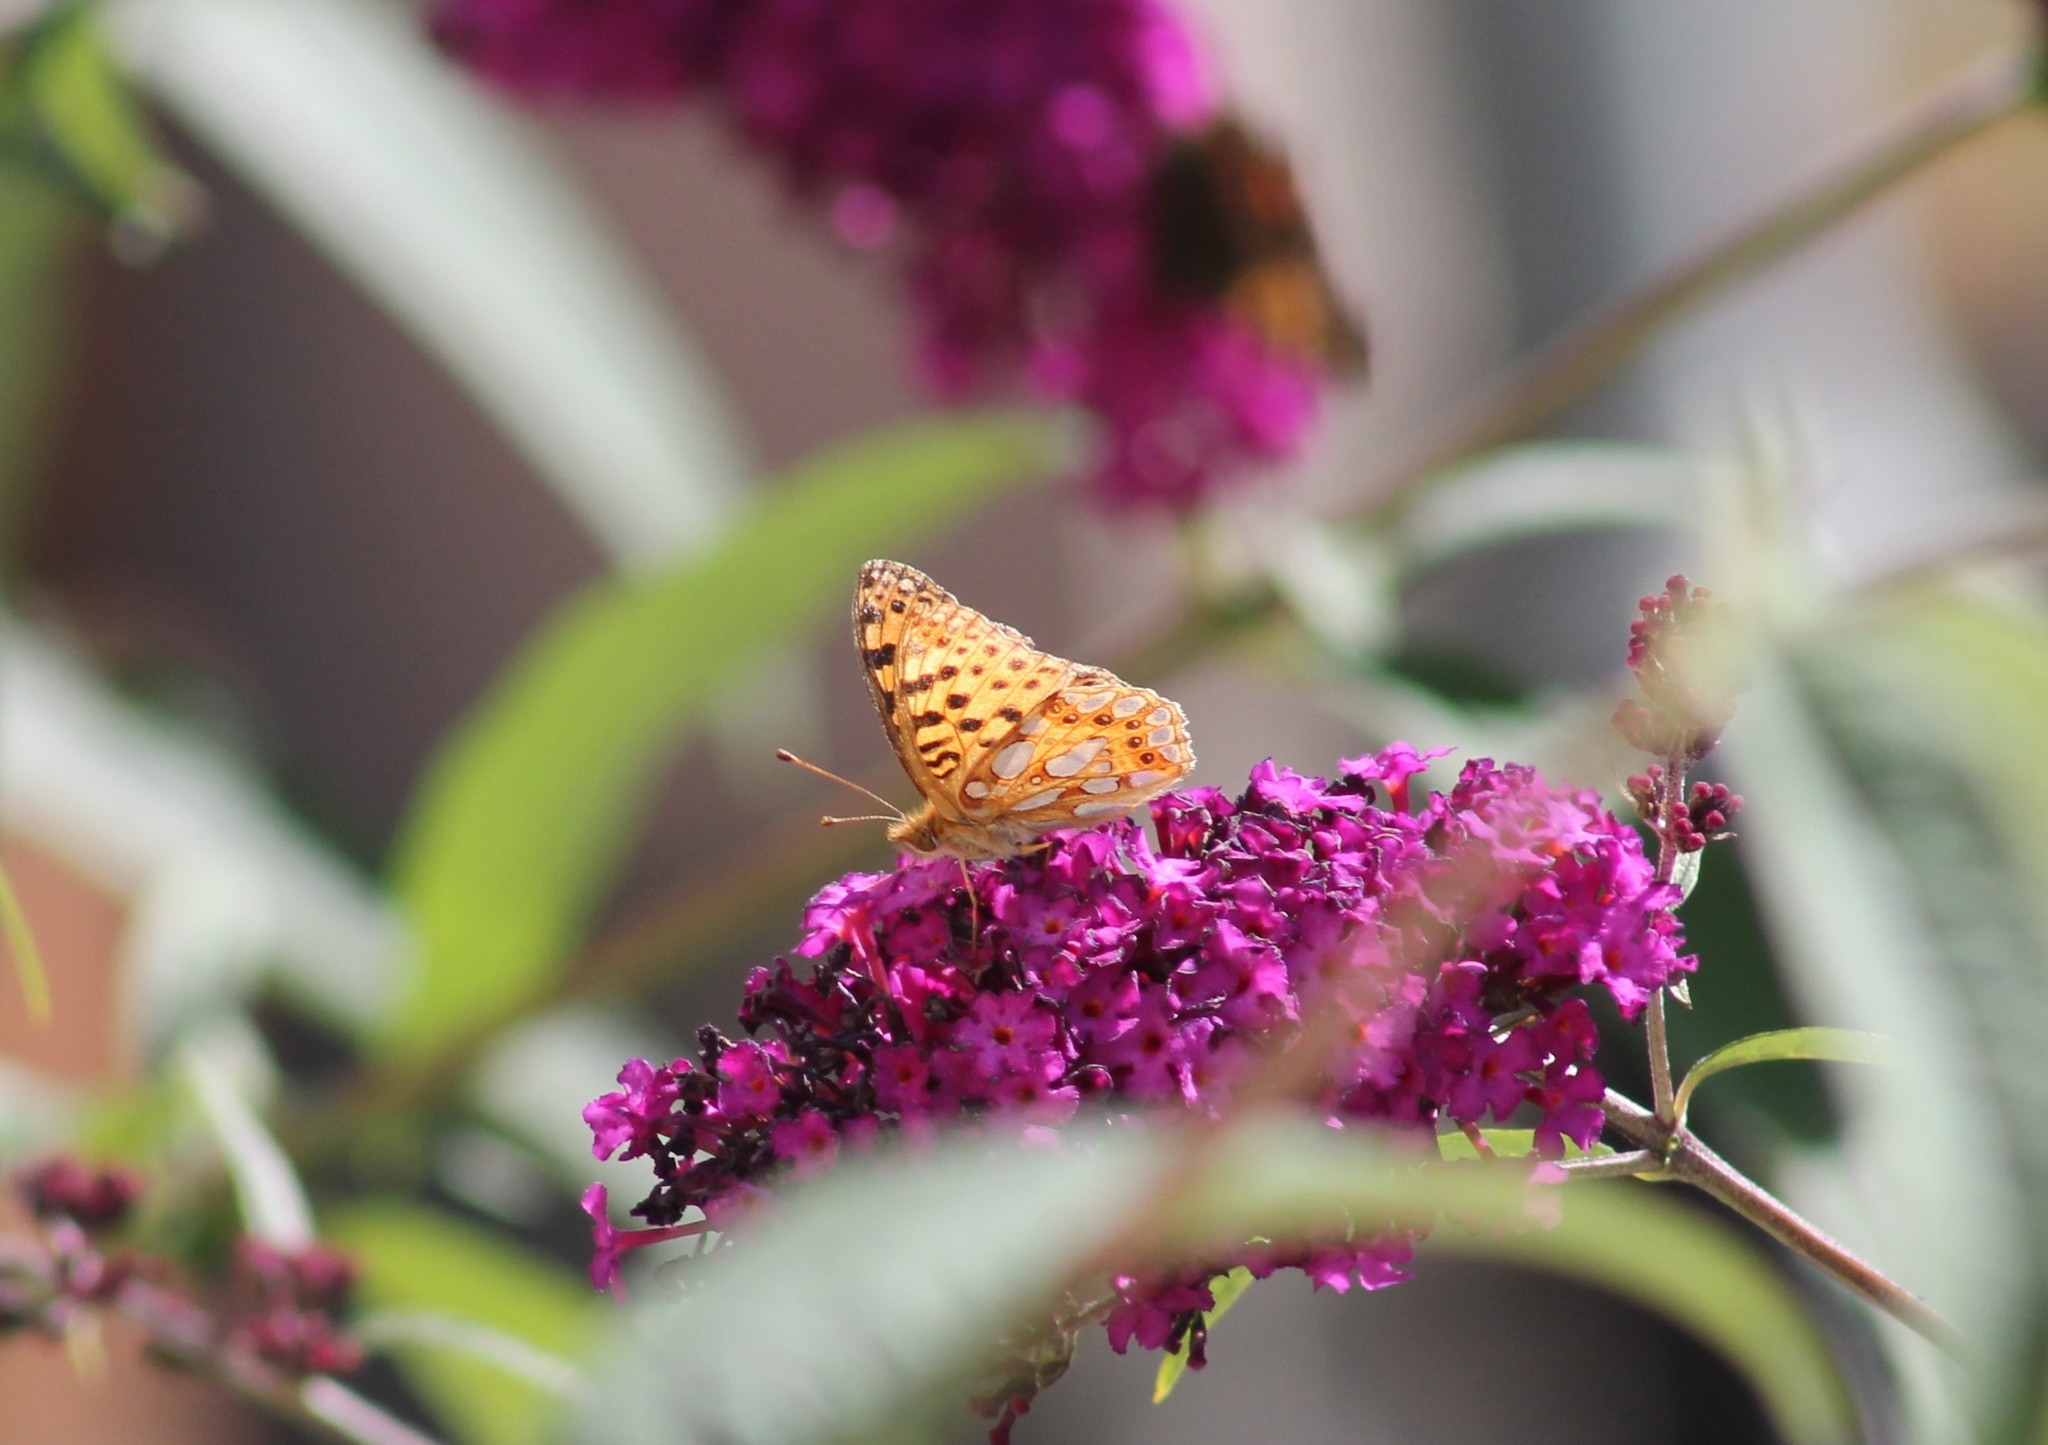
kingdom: Animalia
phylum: Arthropoda
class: Insecta
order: Lepidoptera
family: Nymphalidae
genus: Issoria
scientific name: Issoria lathonia
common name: Queen of spain fritillary
